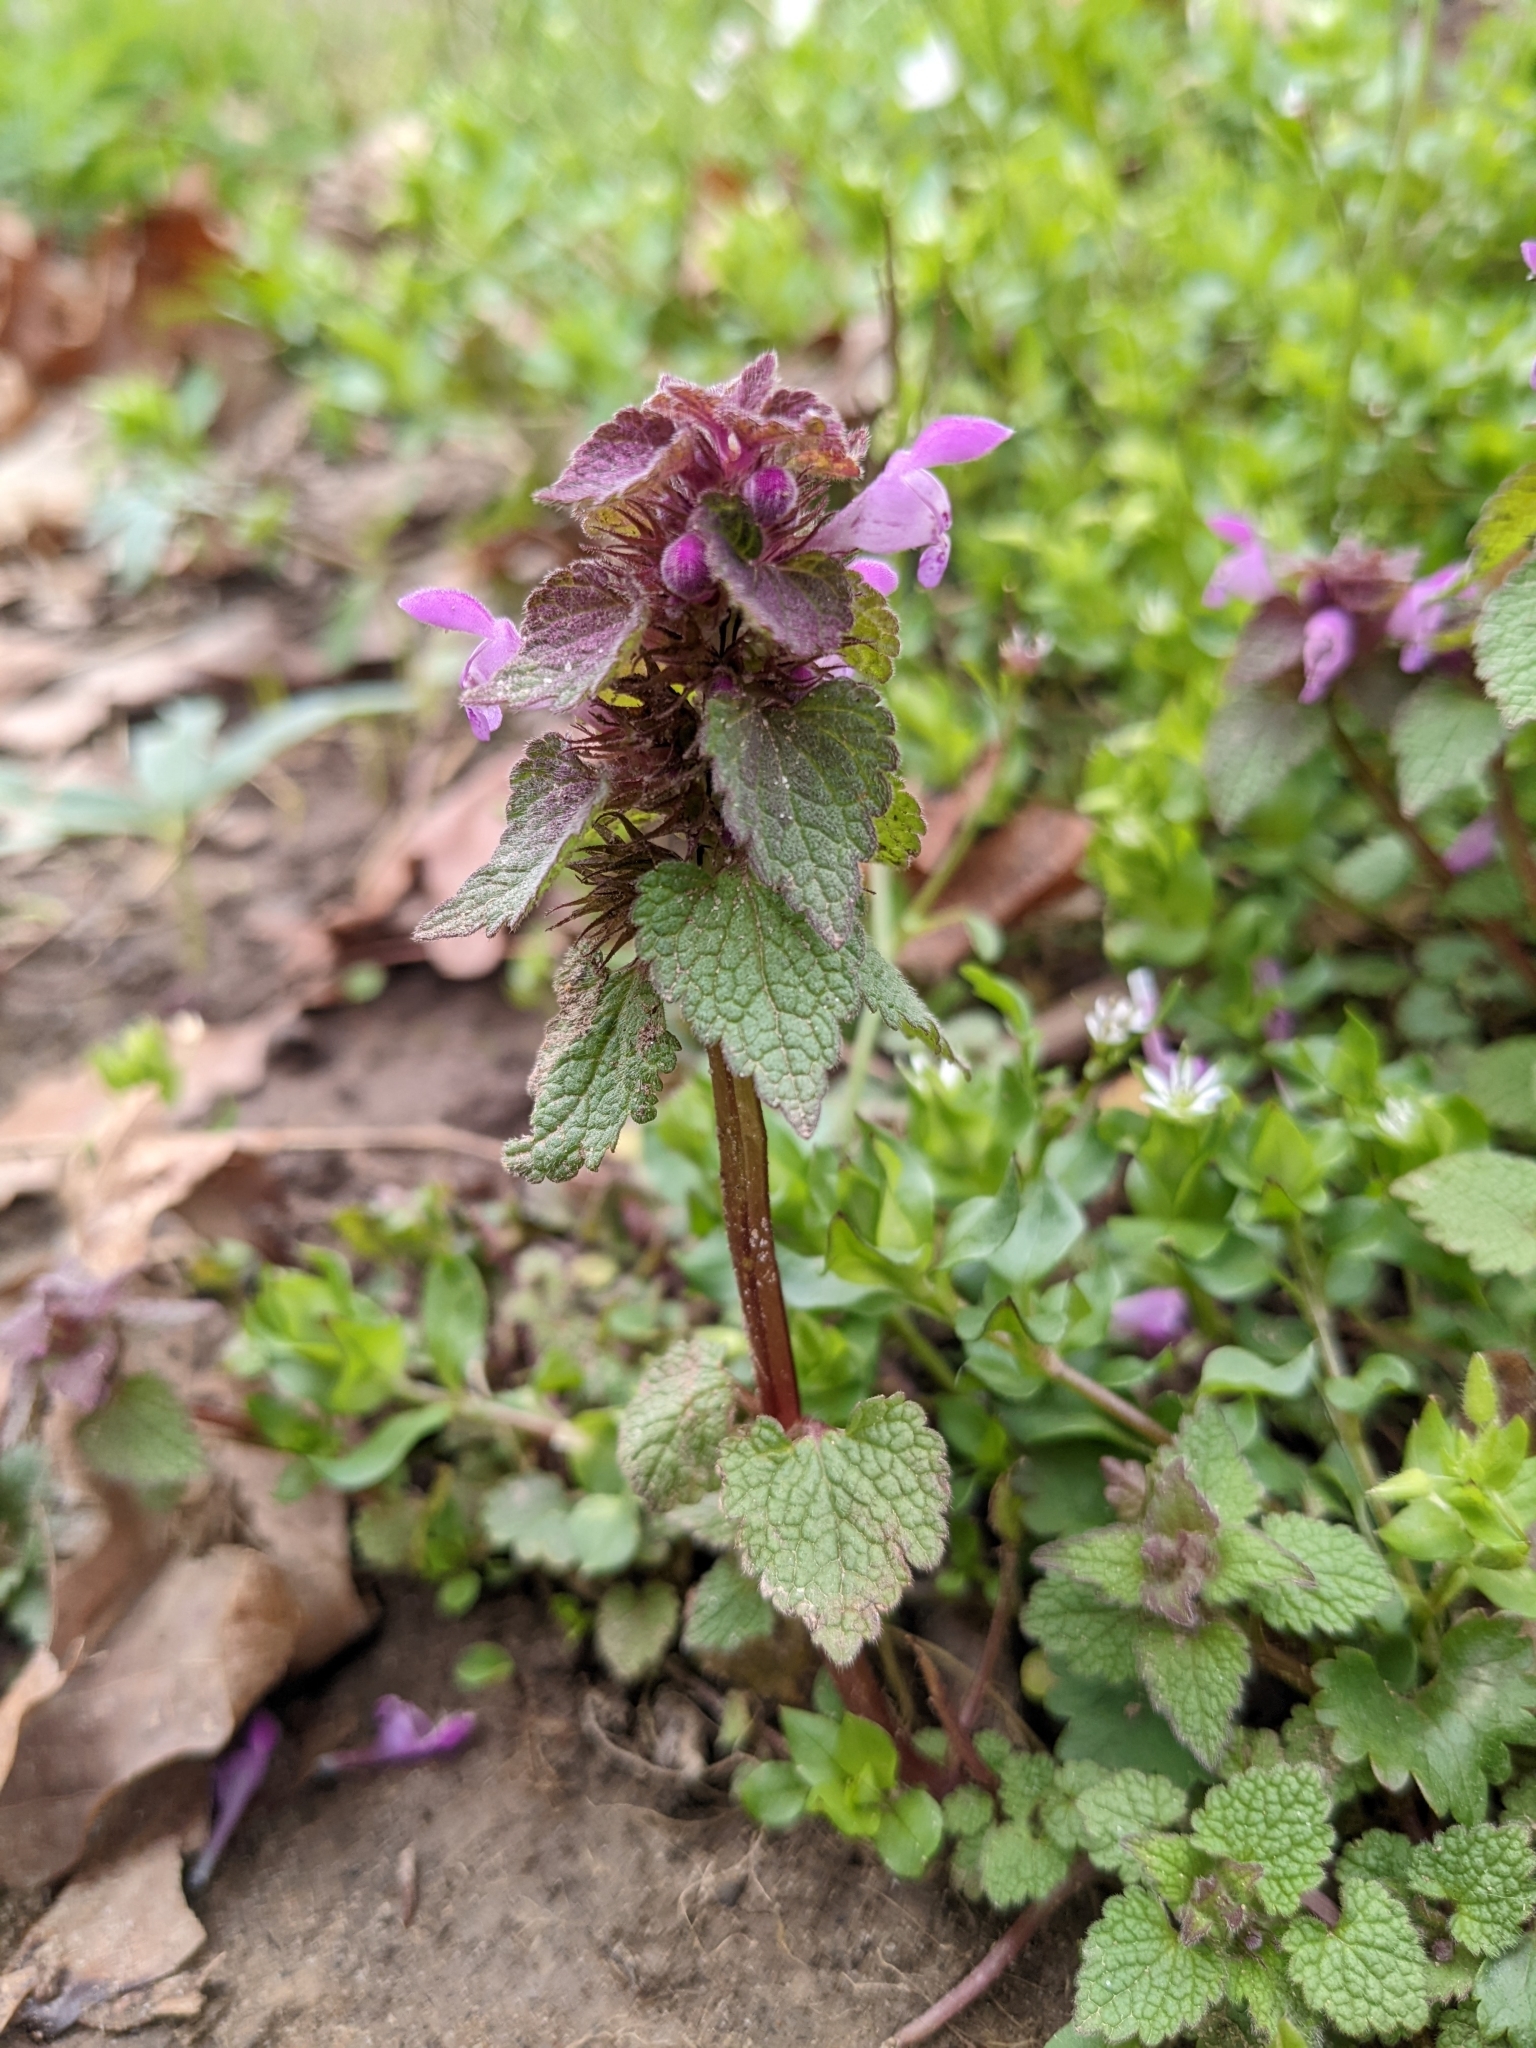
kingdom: Plantae
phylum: Tracheophyta
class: Magnoliopsida
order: Lamiales
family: Lamiaceae
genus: Lamium
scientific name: Lamium purpureum
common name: Red dead-nettle
